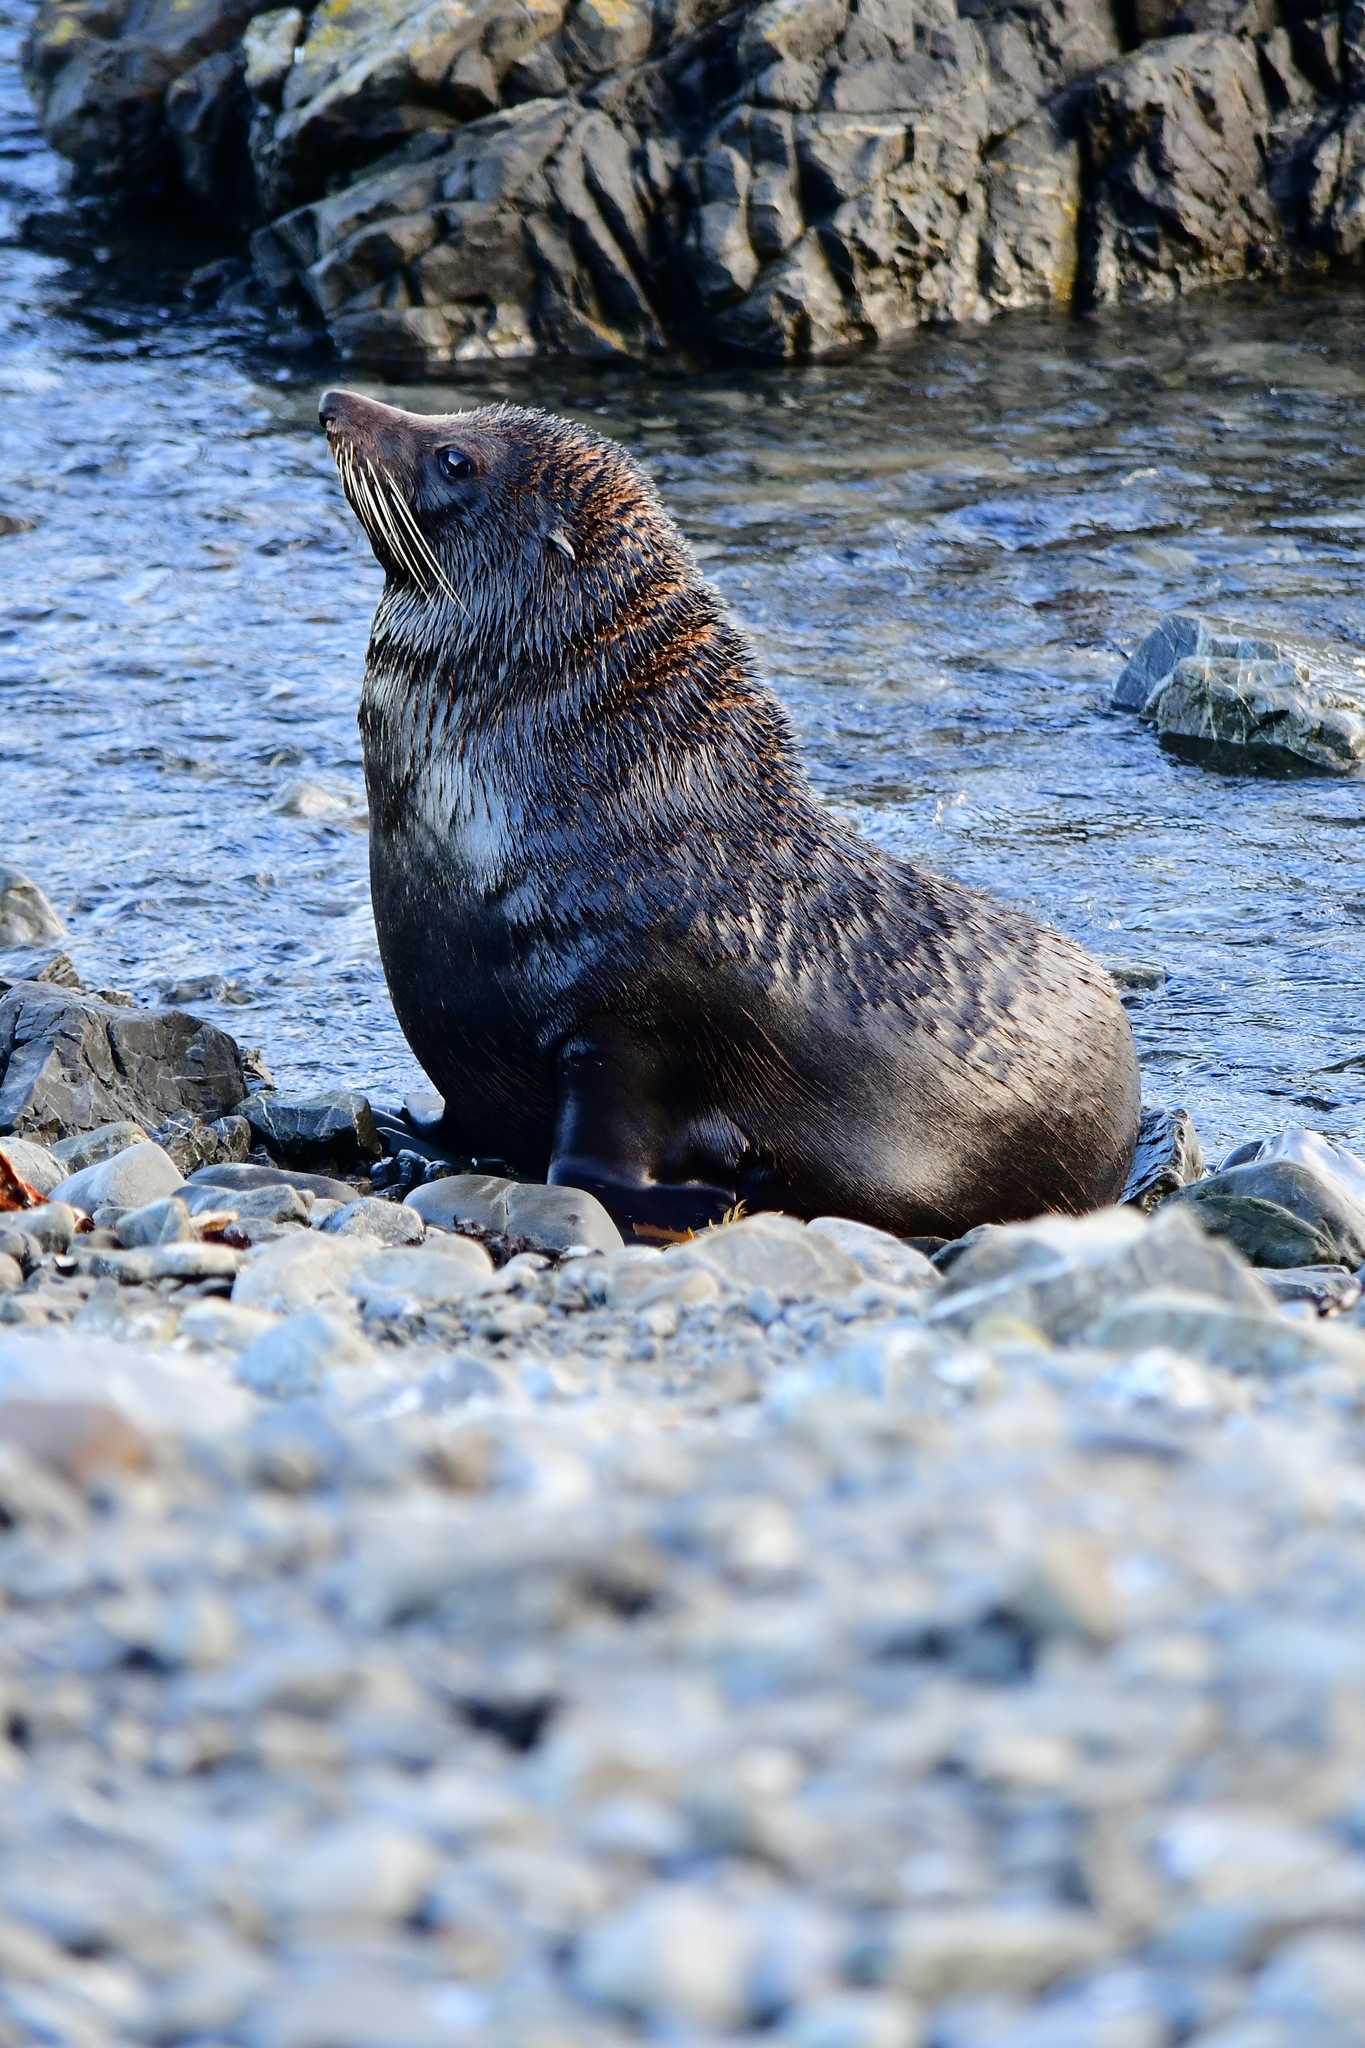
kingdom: Animalia
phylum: Chordata
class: Mammalia
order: Carnivora
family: Otariidae
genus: Arctocephalus
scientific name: Arctocephalus forsteri
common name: New zealand fur seal
